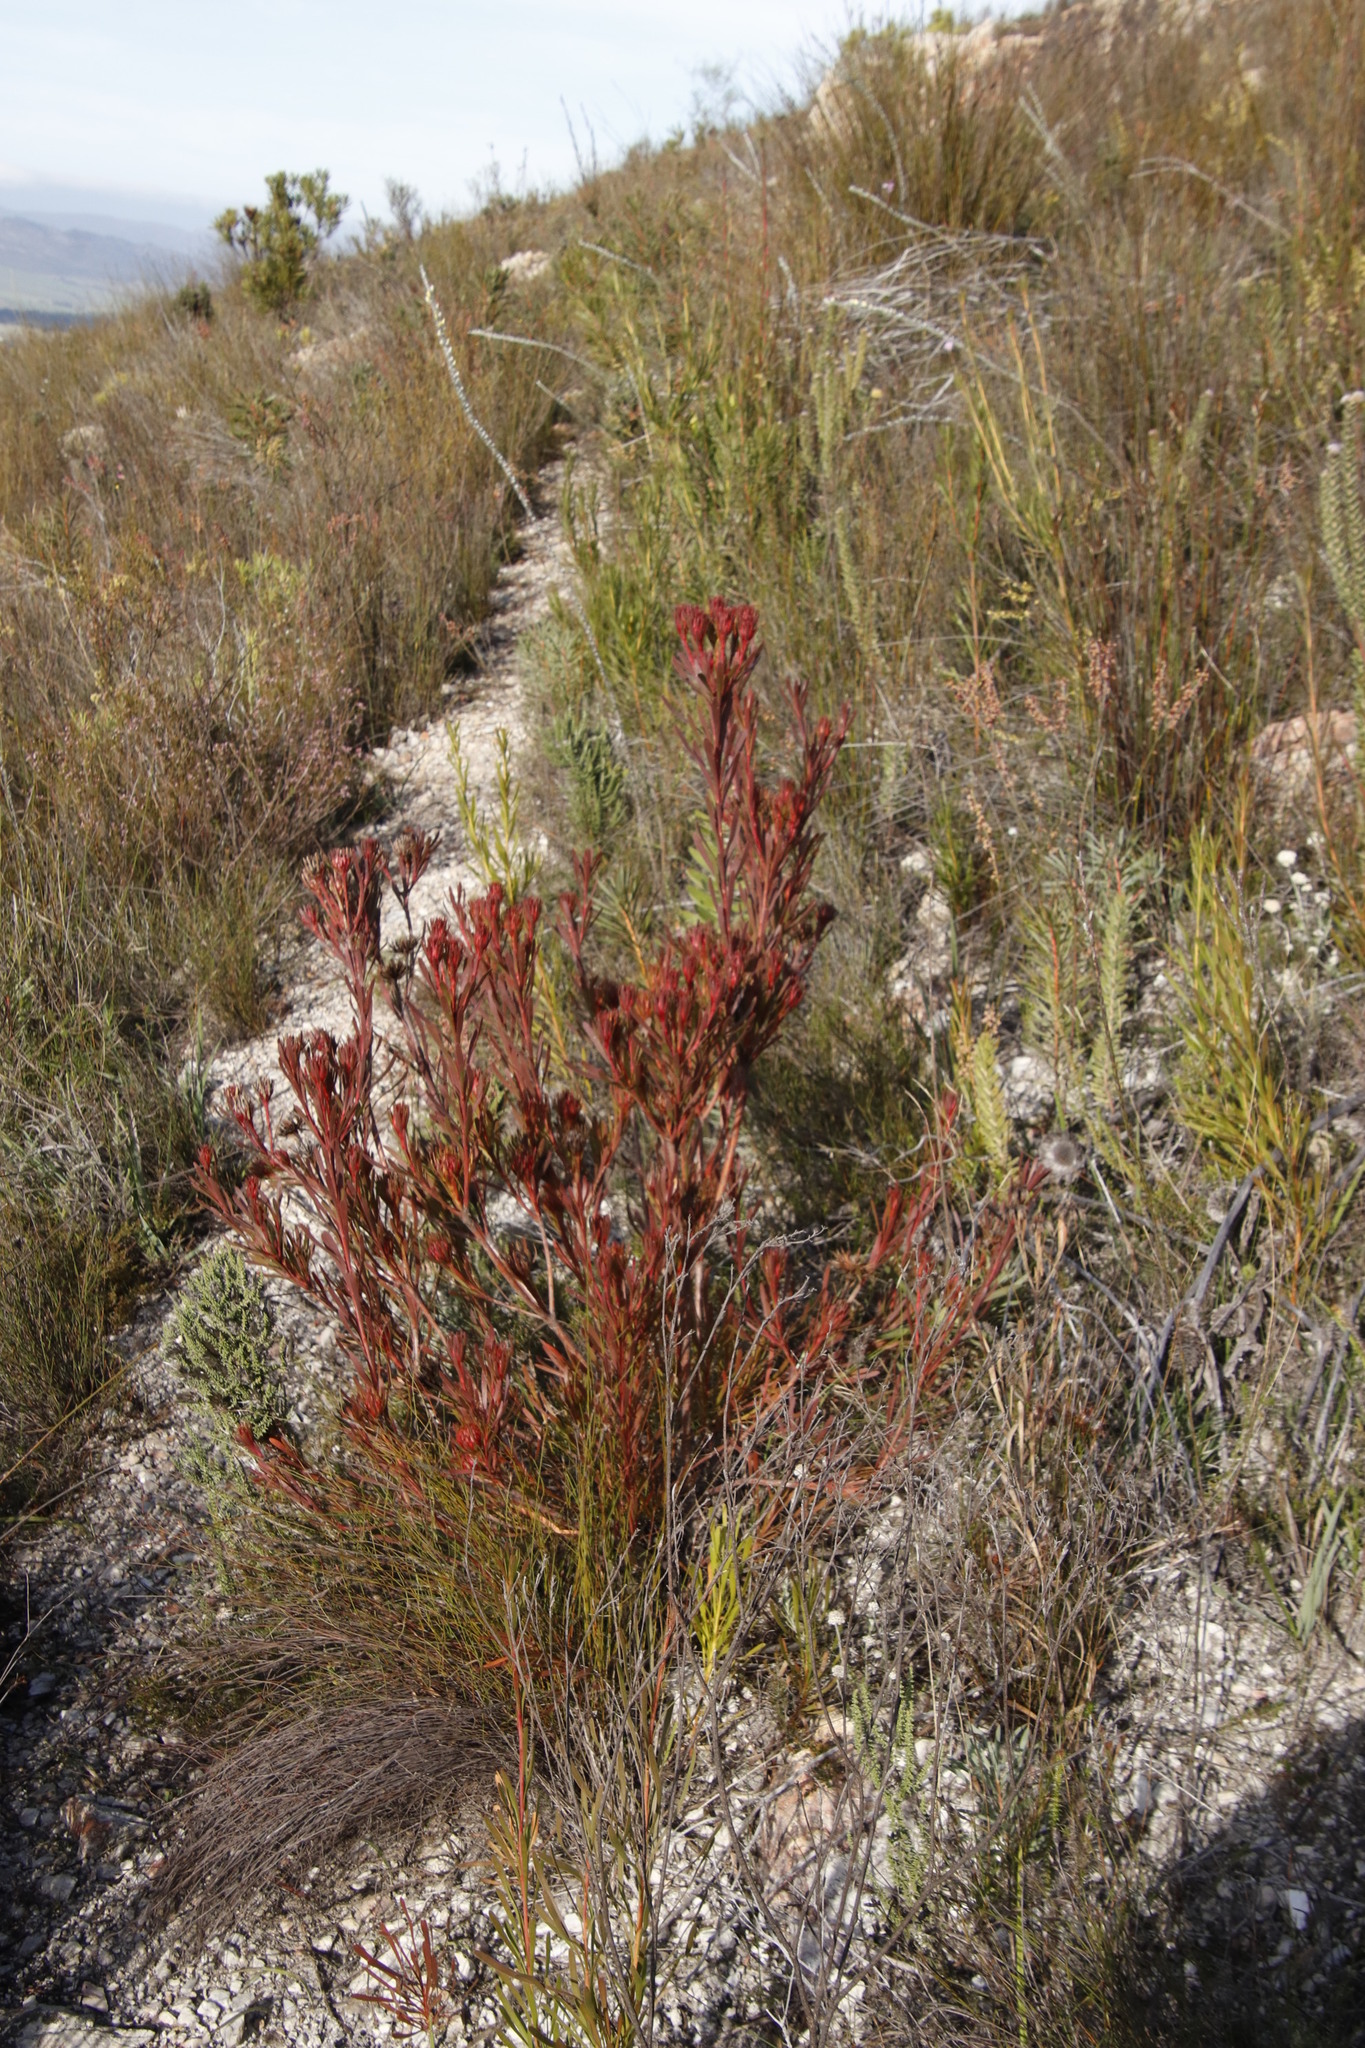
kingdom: Plantae
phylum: Tracheophyta
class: Magnoliopsida
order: Proteales
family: Proteaceae
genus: Aulax
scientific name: Aulax umbellata
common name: Broad-leaf featherbush
